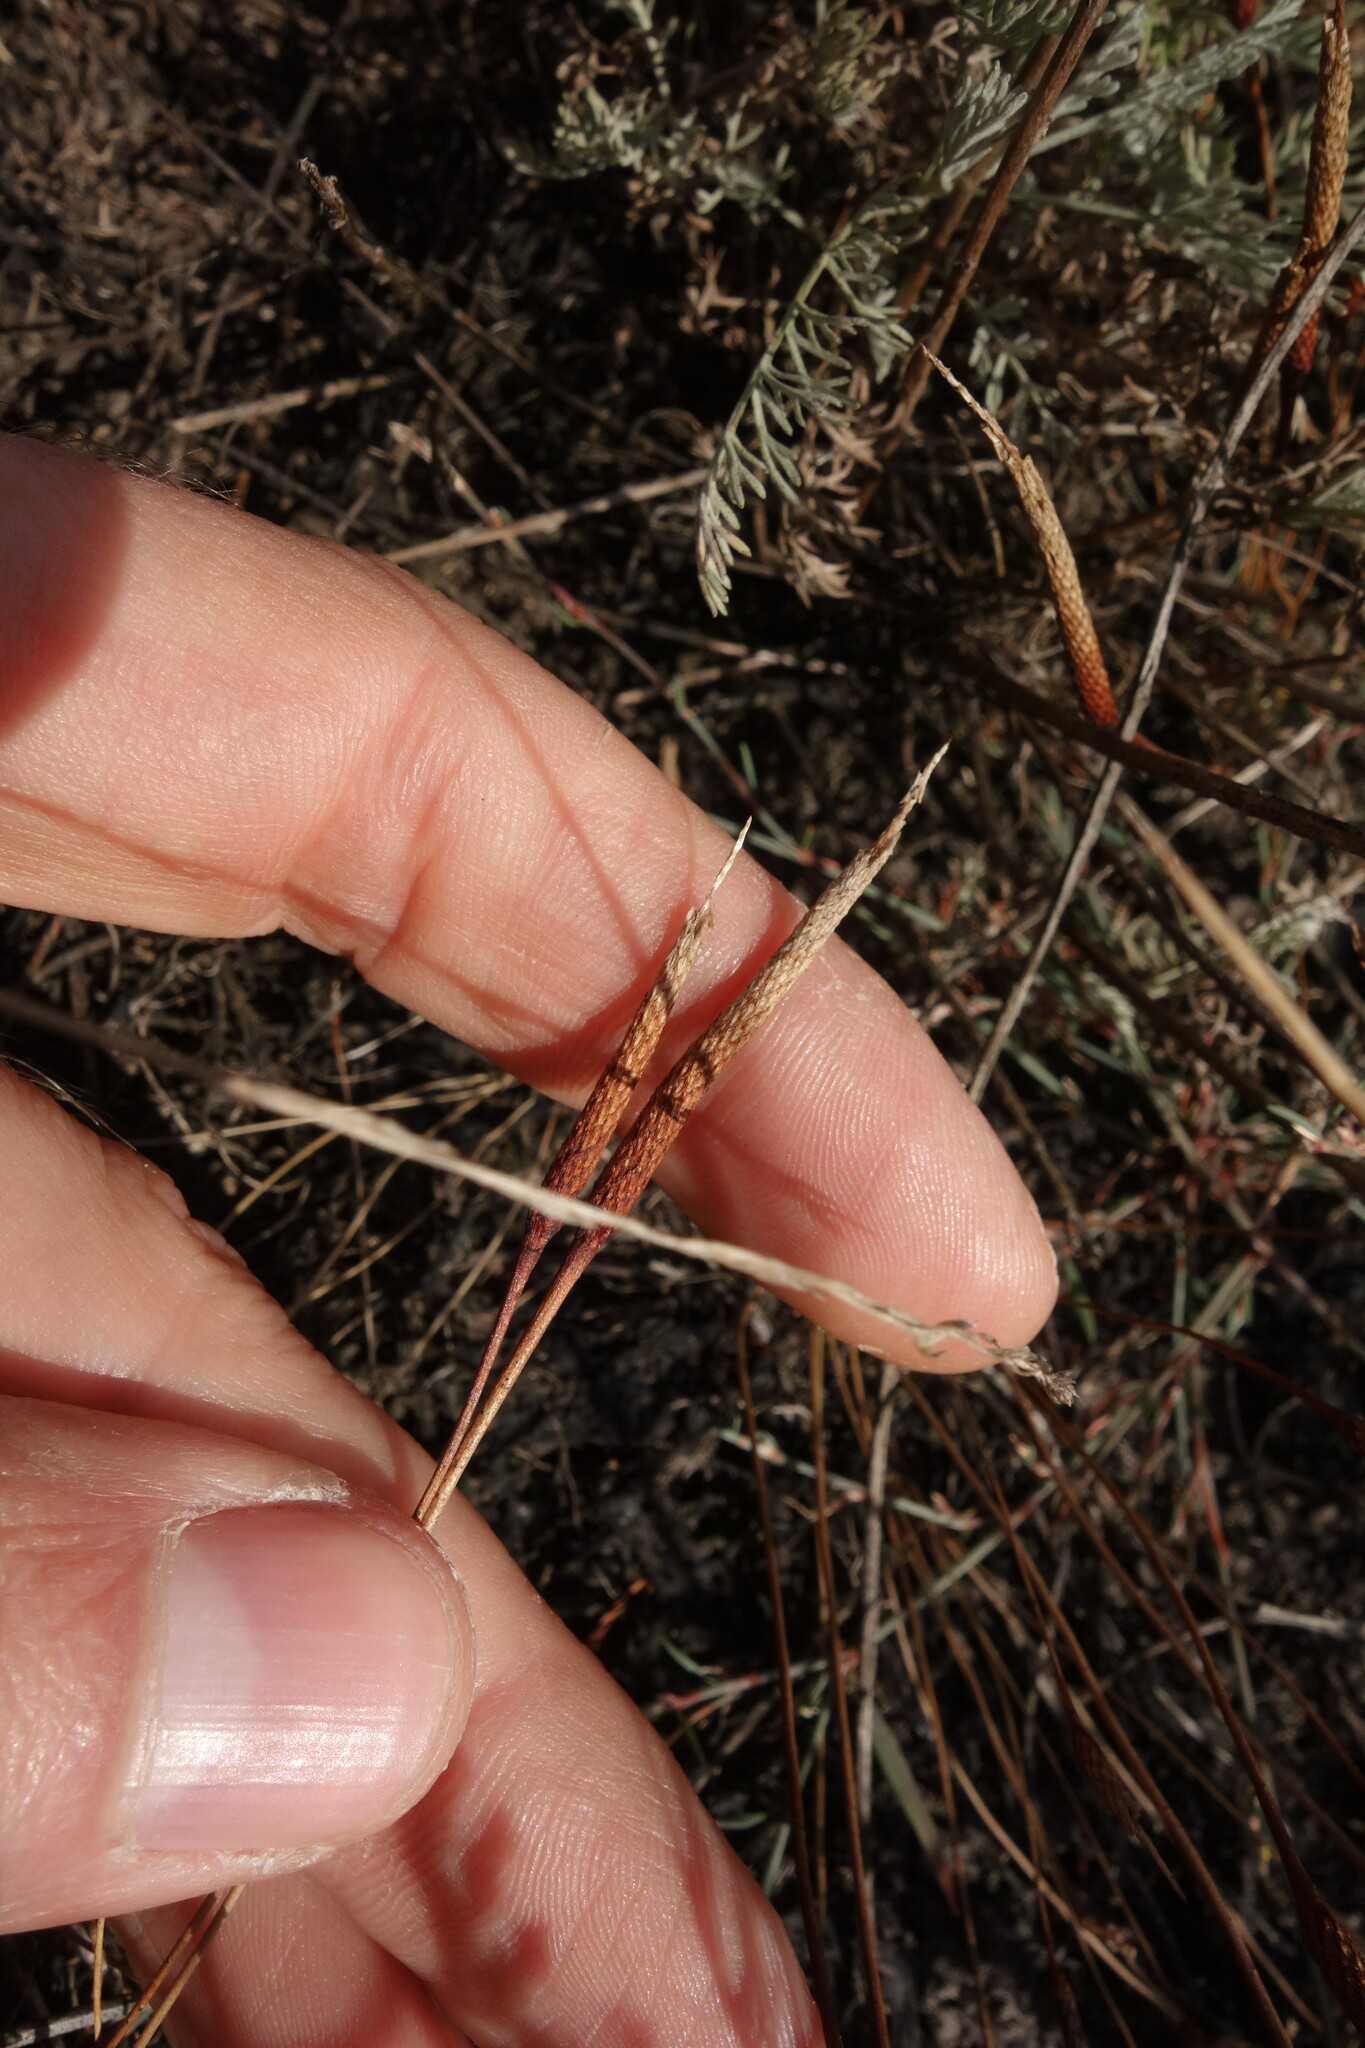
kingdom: Plantae
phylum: Tracheophyta
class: Magnoliopsida
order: Ranunculales
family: Ranunculaceae
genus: Myosurus
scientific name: Myosurus minimus
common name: Mousetail
